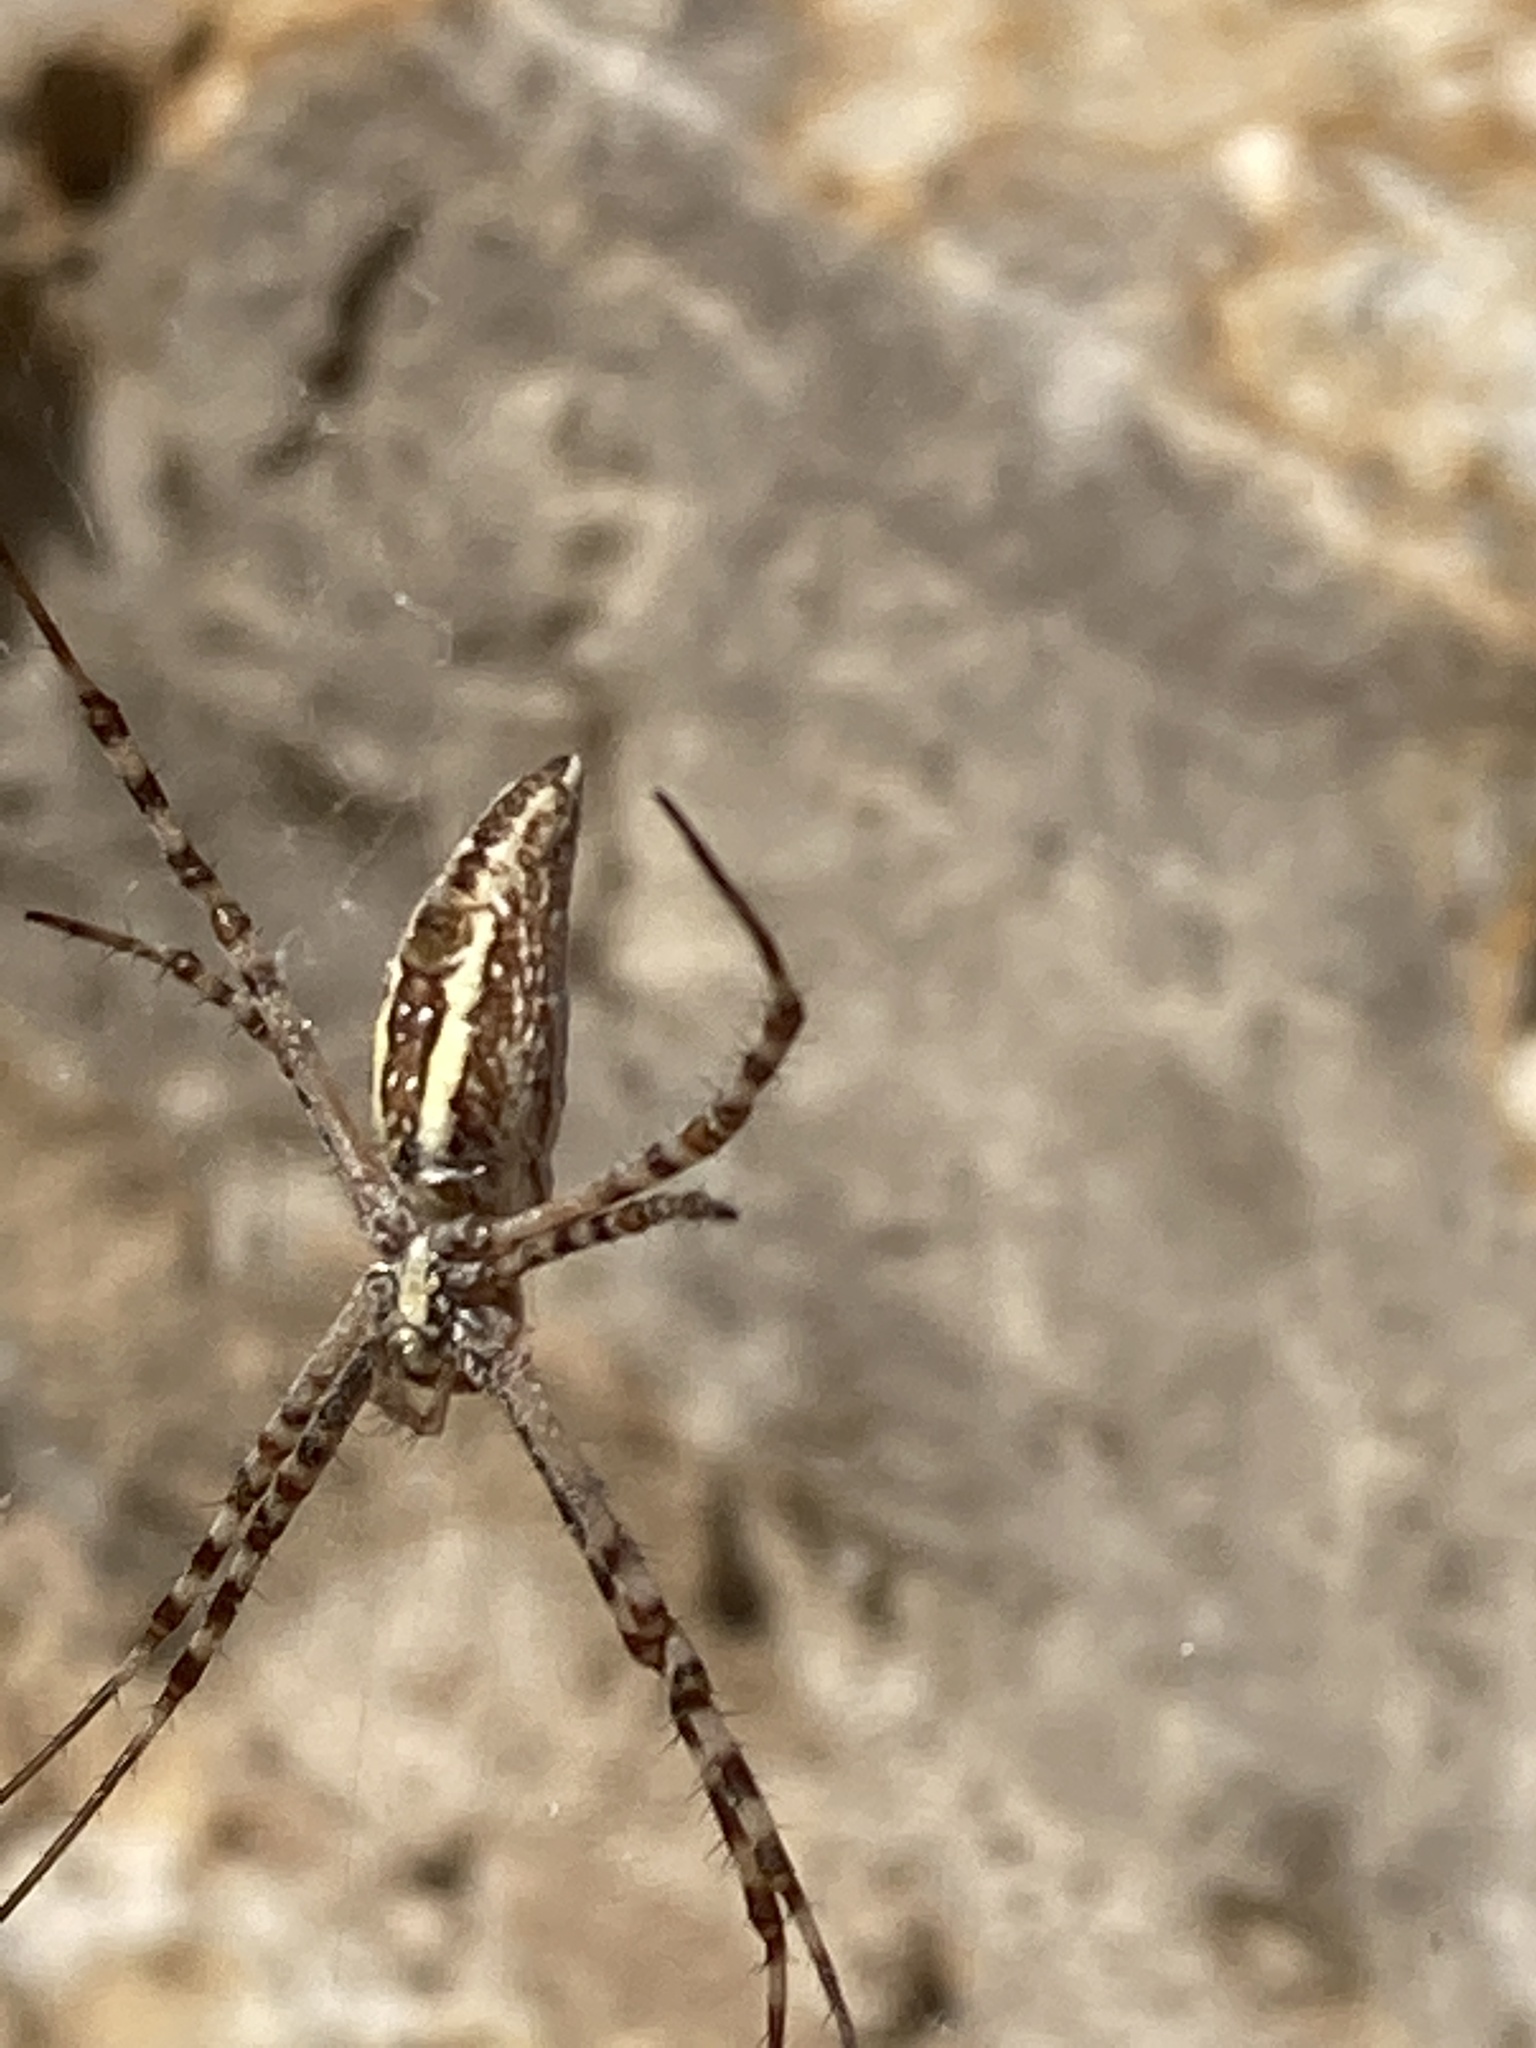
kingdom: Animalia
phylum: Arthropoda
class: Arachnida
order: Araneae
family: Araneidae
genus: Argiope
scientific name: Argiope trifasciata
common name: Banded garden spider
